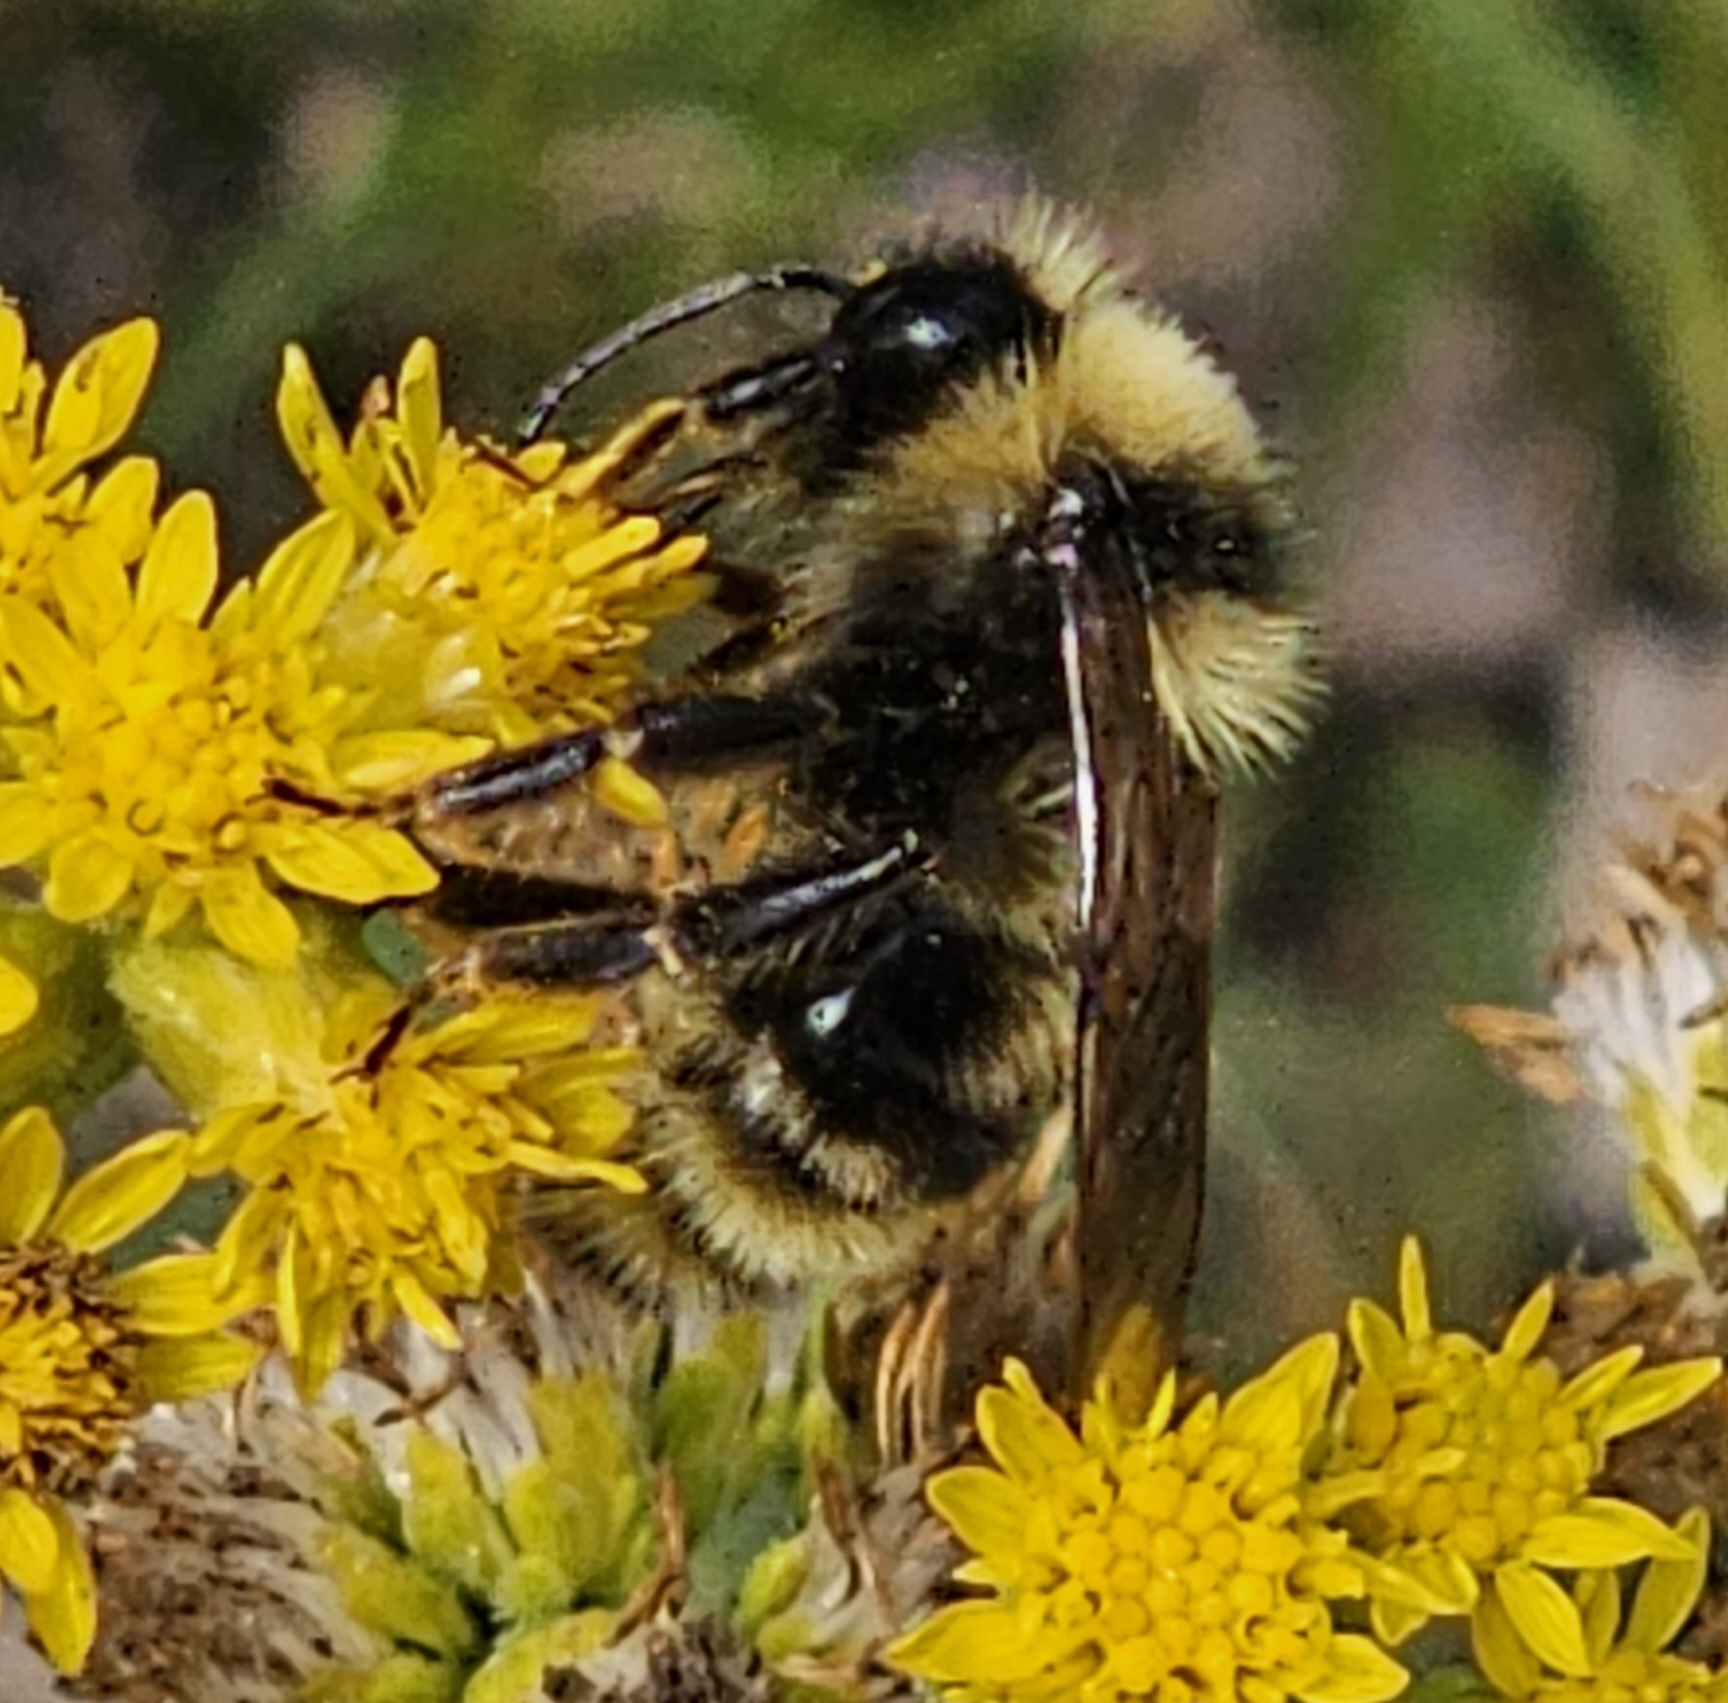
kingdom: Animalia
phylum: Arthropoda
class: Insecta
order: Hymenoptera
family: Apidae
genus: Bombus
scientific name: Bombus suckleyi
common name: Suckley cuckoo bumble bee
